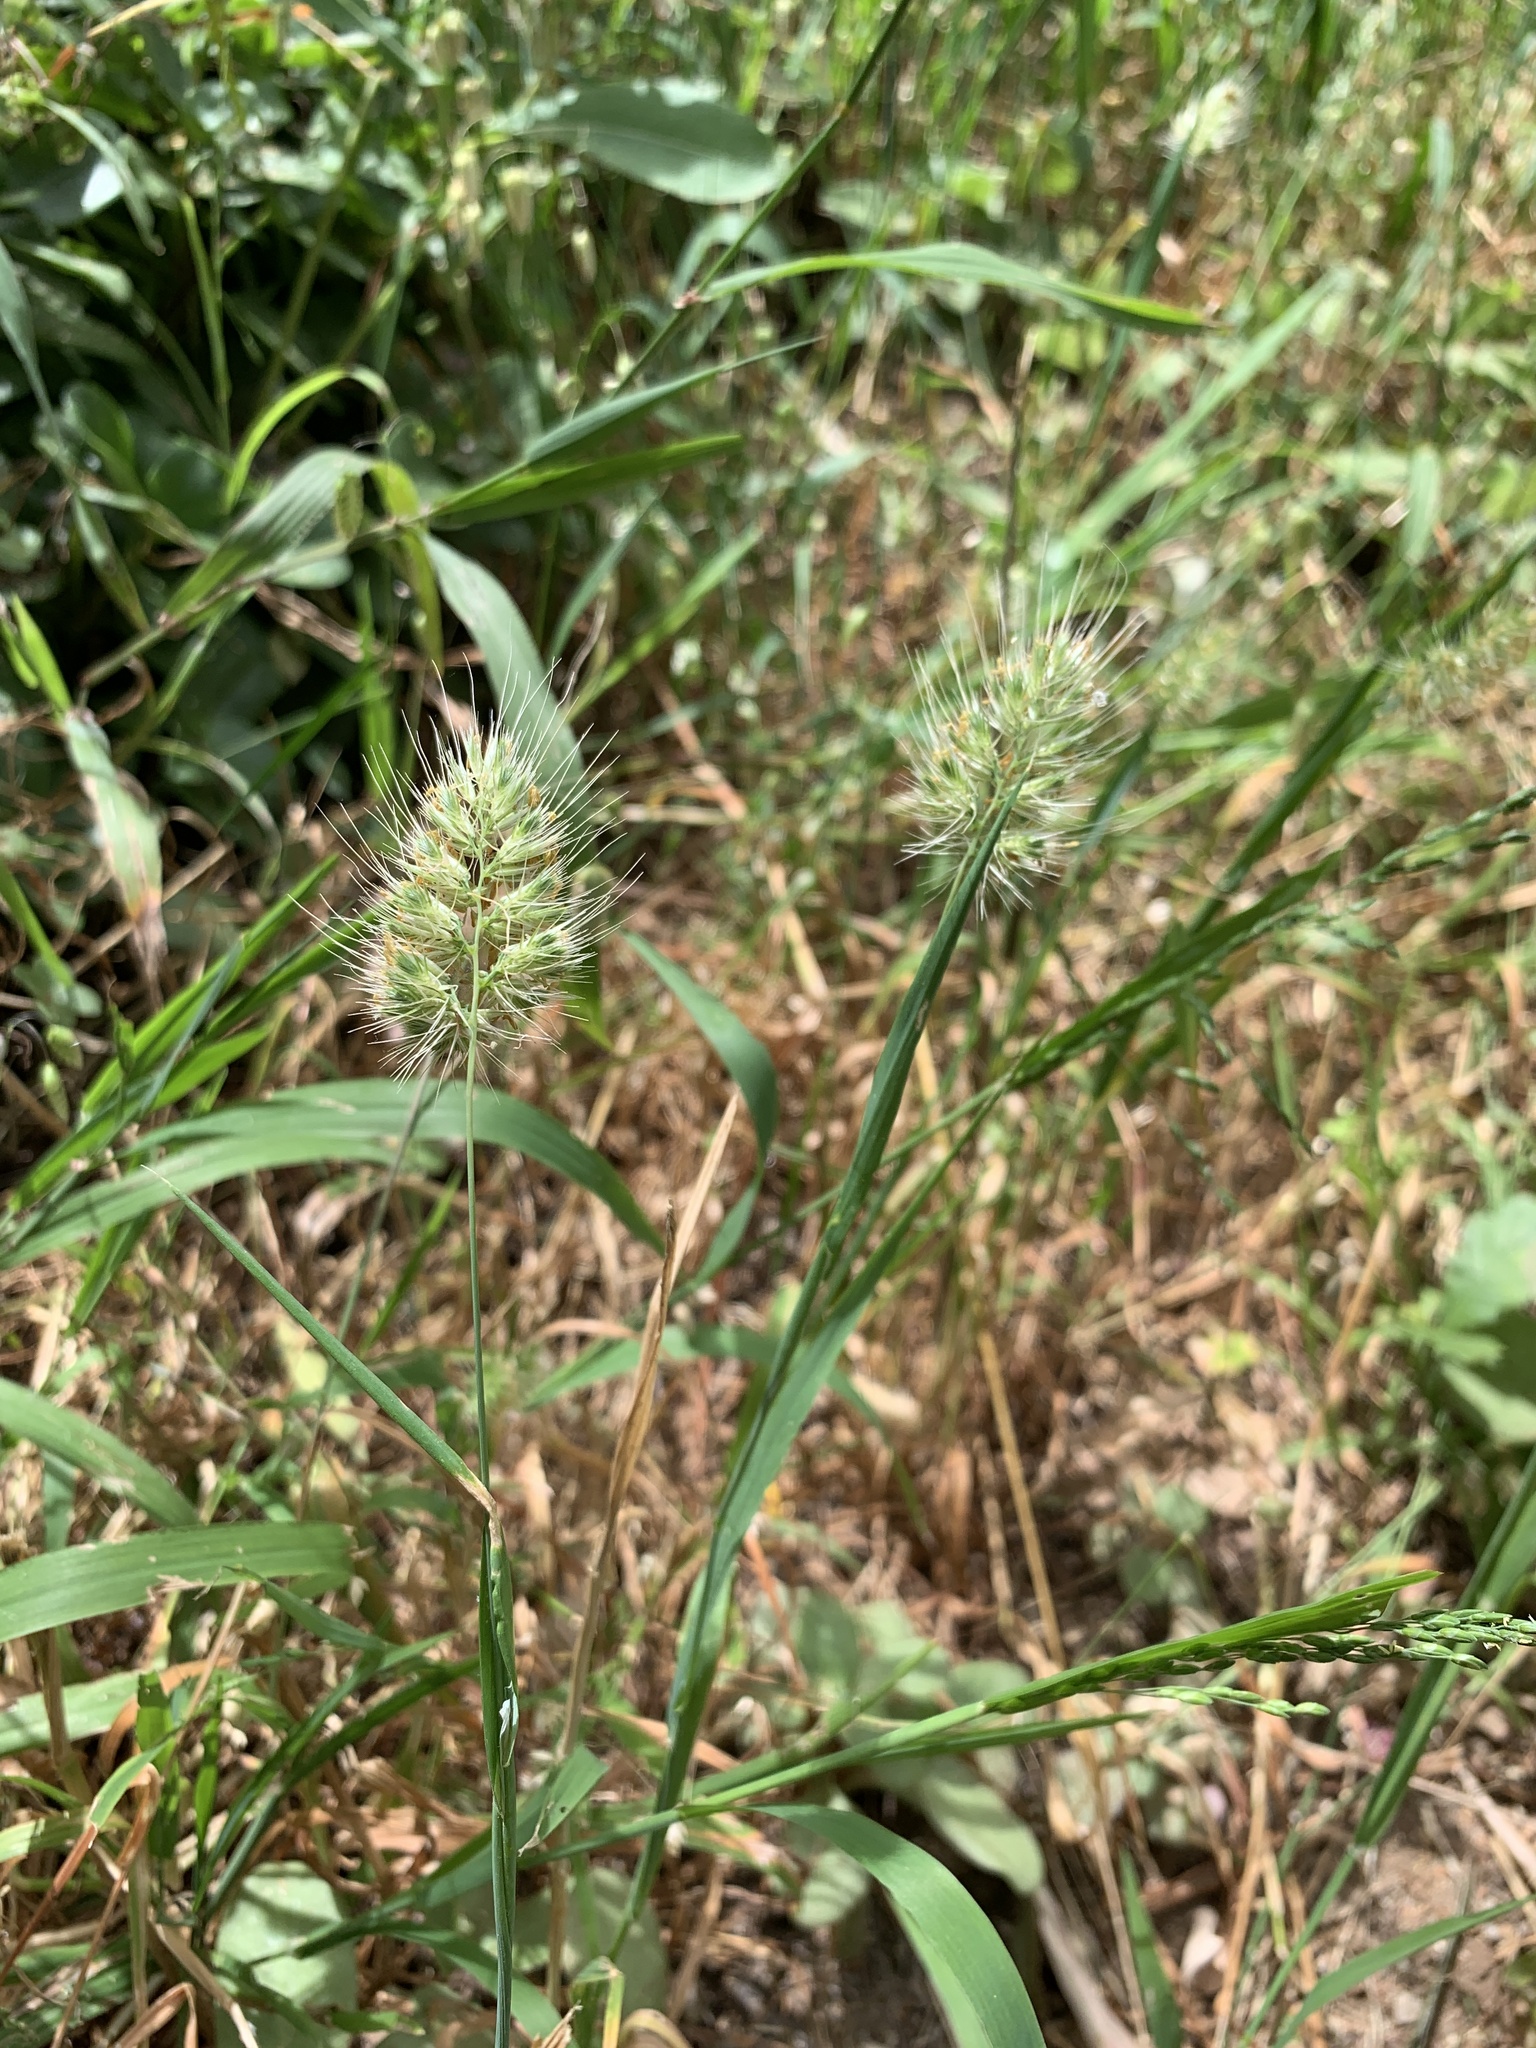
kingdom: Plantae
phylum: Tracheophyta
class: Liliopsida
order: Poales
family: Poaceae
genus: Cynosurus
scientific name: Cynosurus echinatus
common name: Rough dog's-tail
